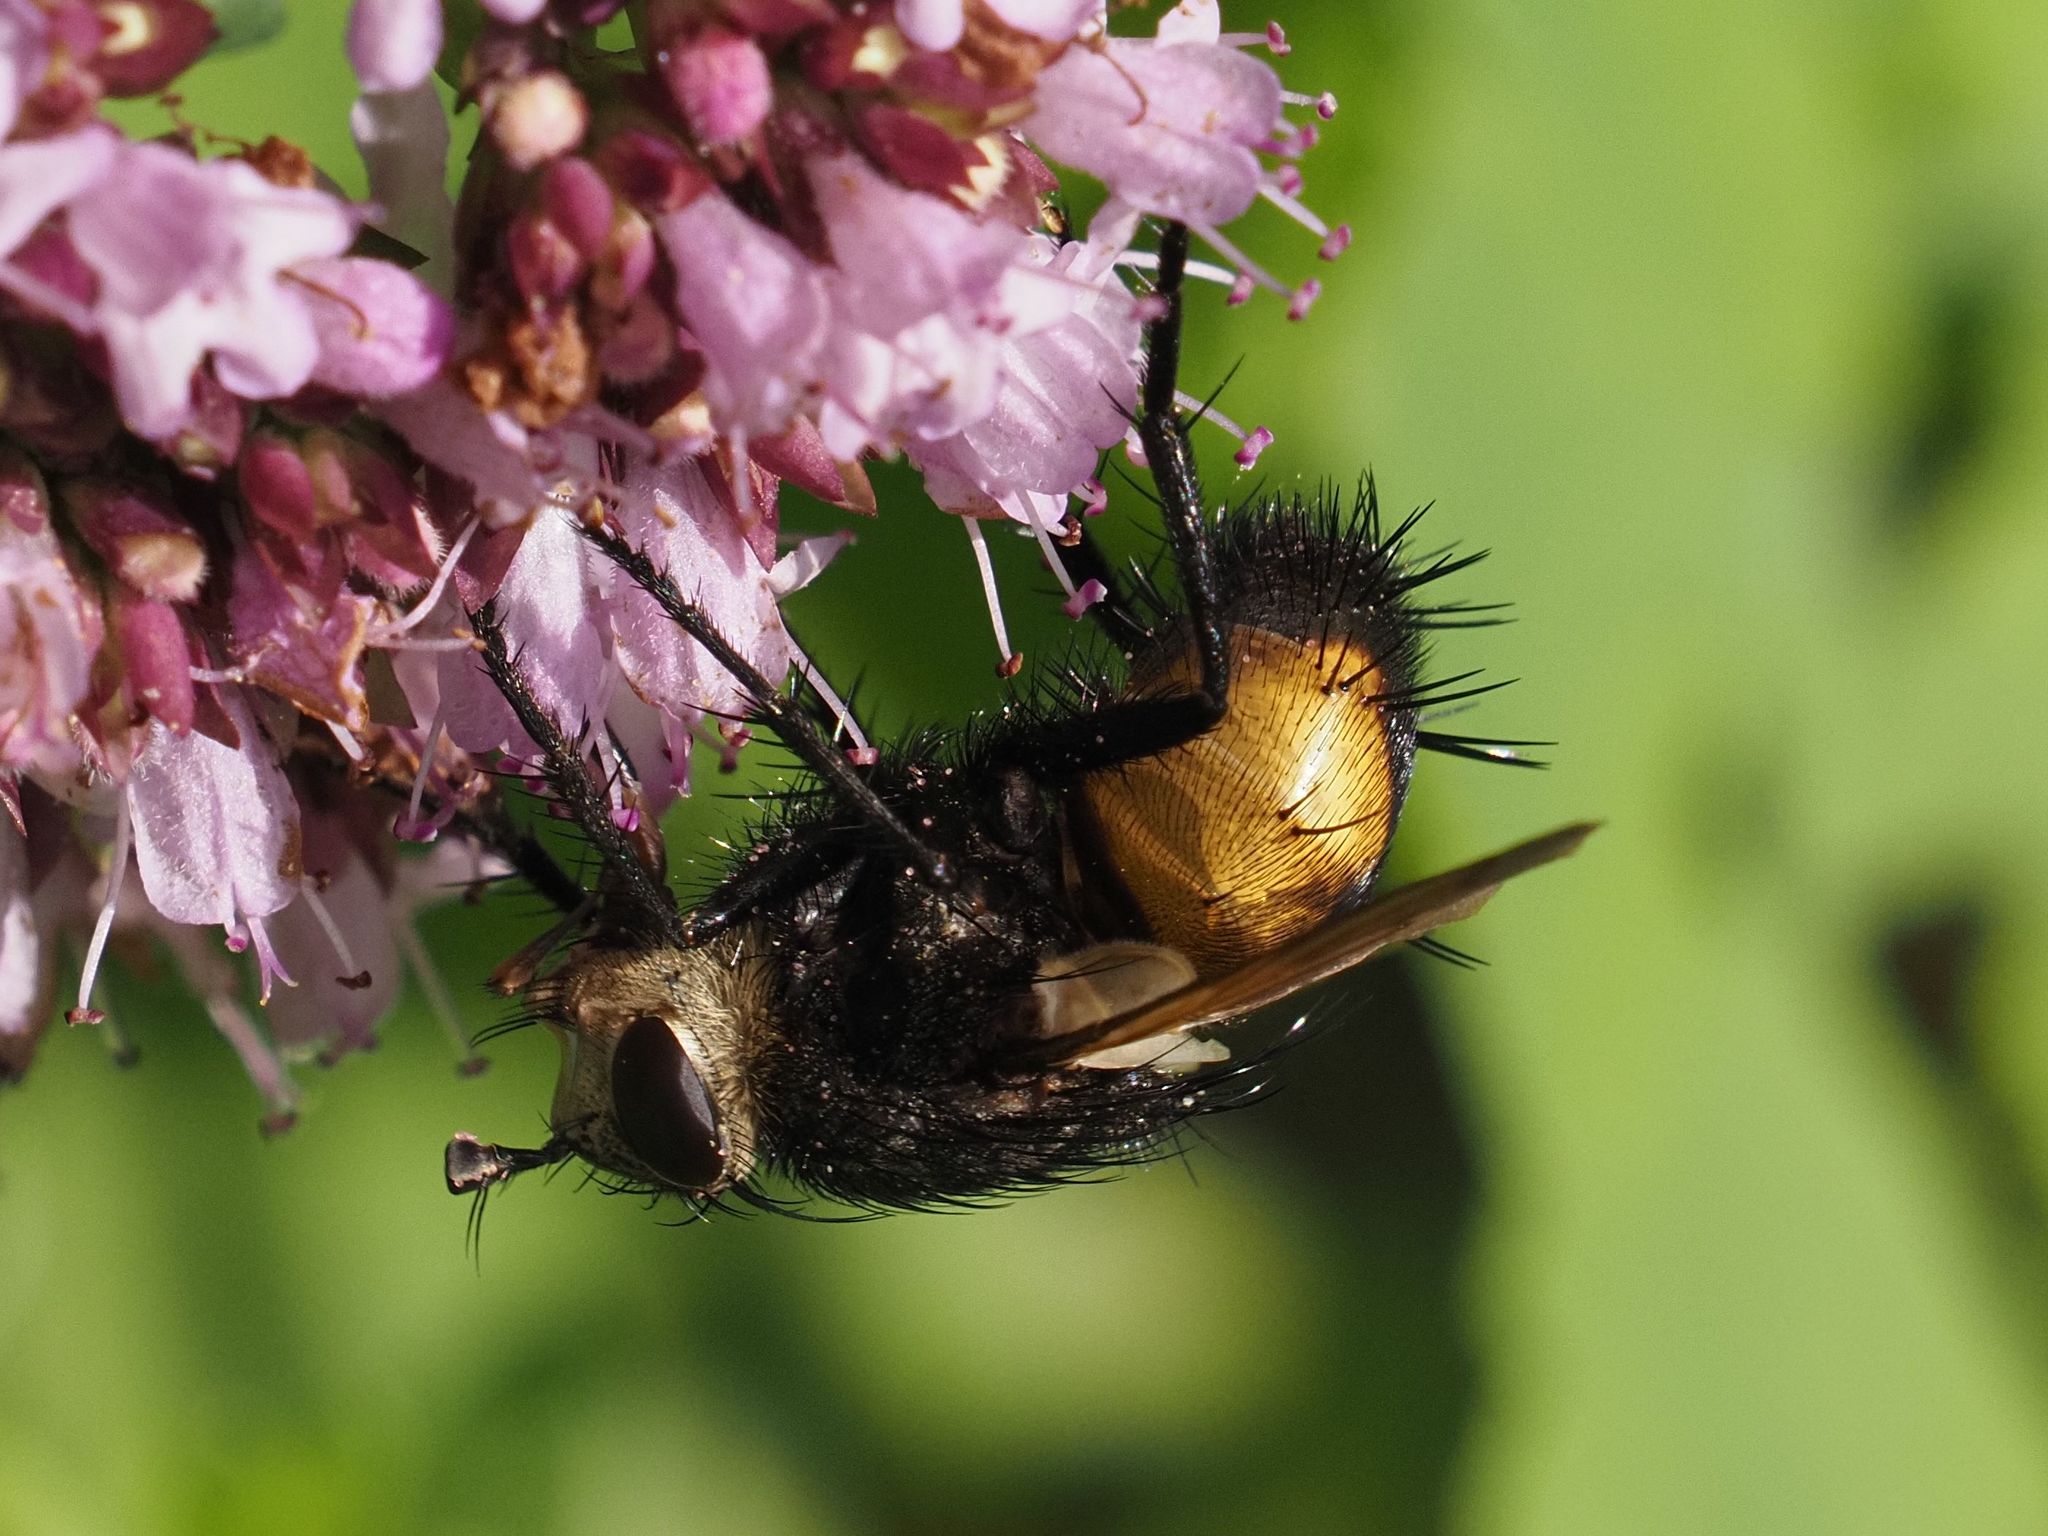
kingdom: Animalia
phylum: Arthropoda
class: Insecta
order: Diptera
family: Tachinidae
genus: Nowickia
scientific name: Nowickia ferox
